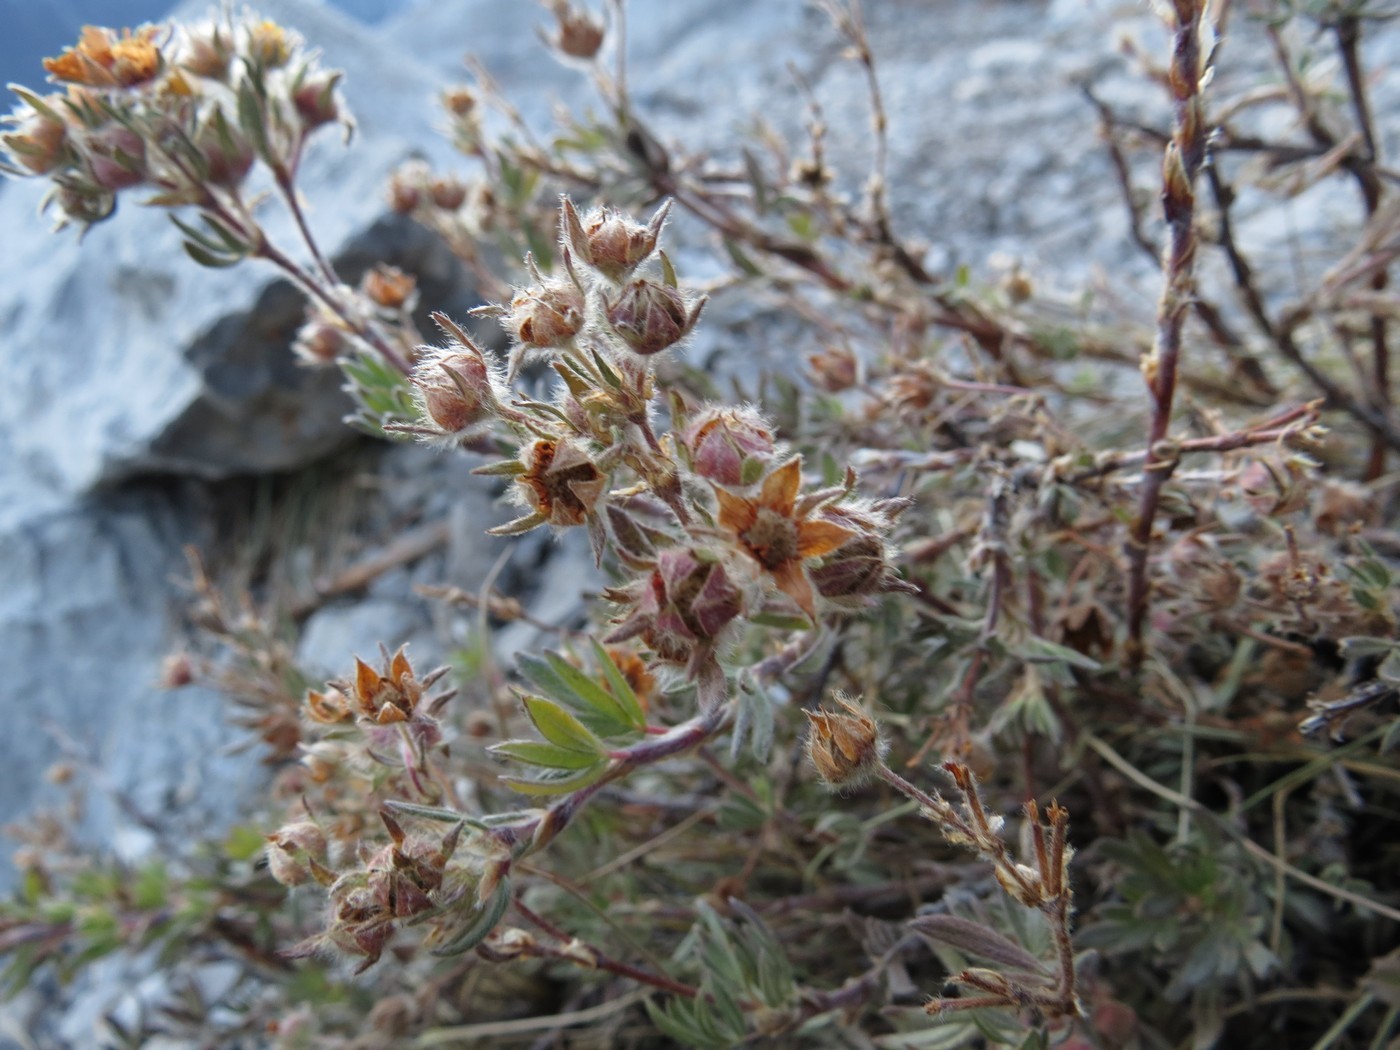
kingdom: Plantae
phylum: Tracheophyta
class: Magnoliopsida
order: Rosales
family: Rosaceae
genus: Dasiphora
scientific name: Dasiphora fruticosa
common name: Shrubby cinquefoil
